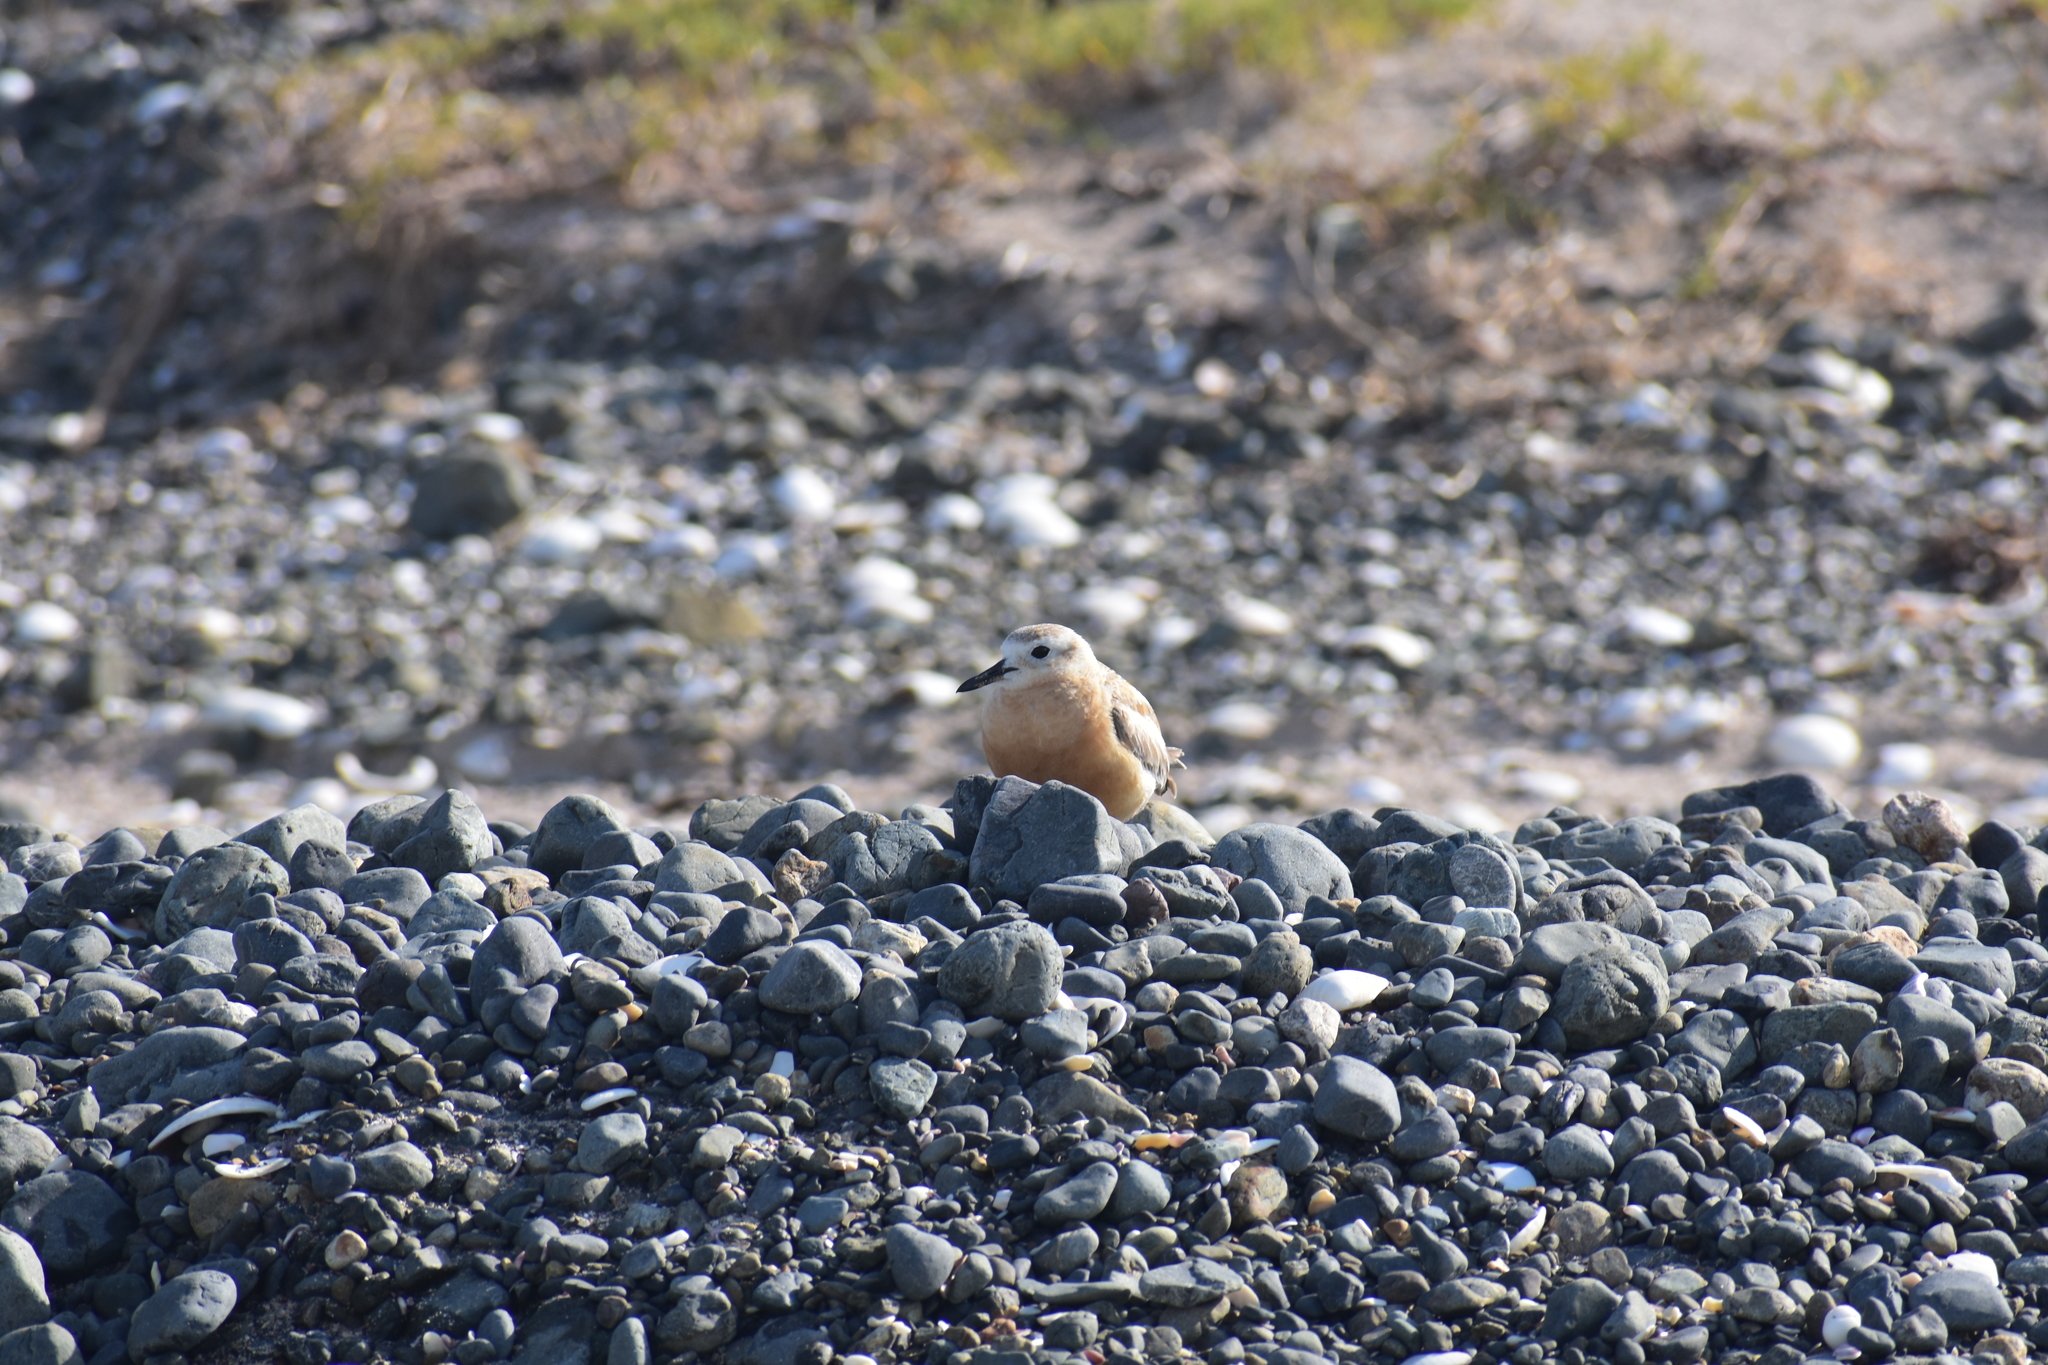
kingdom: Animalia
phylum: Chordata
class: Aves
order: Charadriiformes
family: Charadriidae
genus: Anarhynchus
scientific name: Anarhynchus
